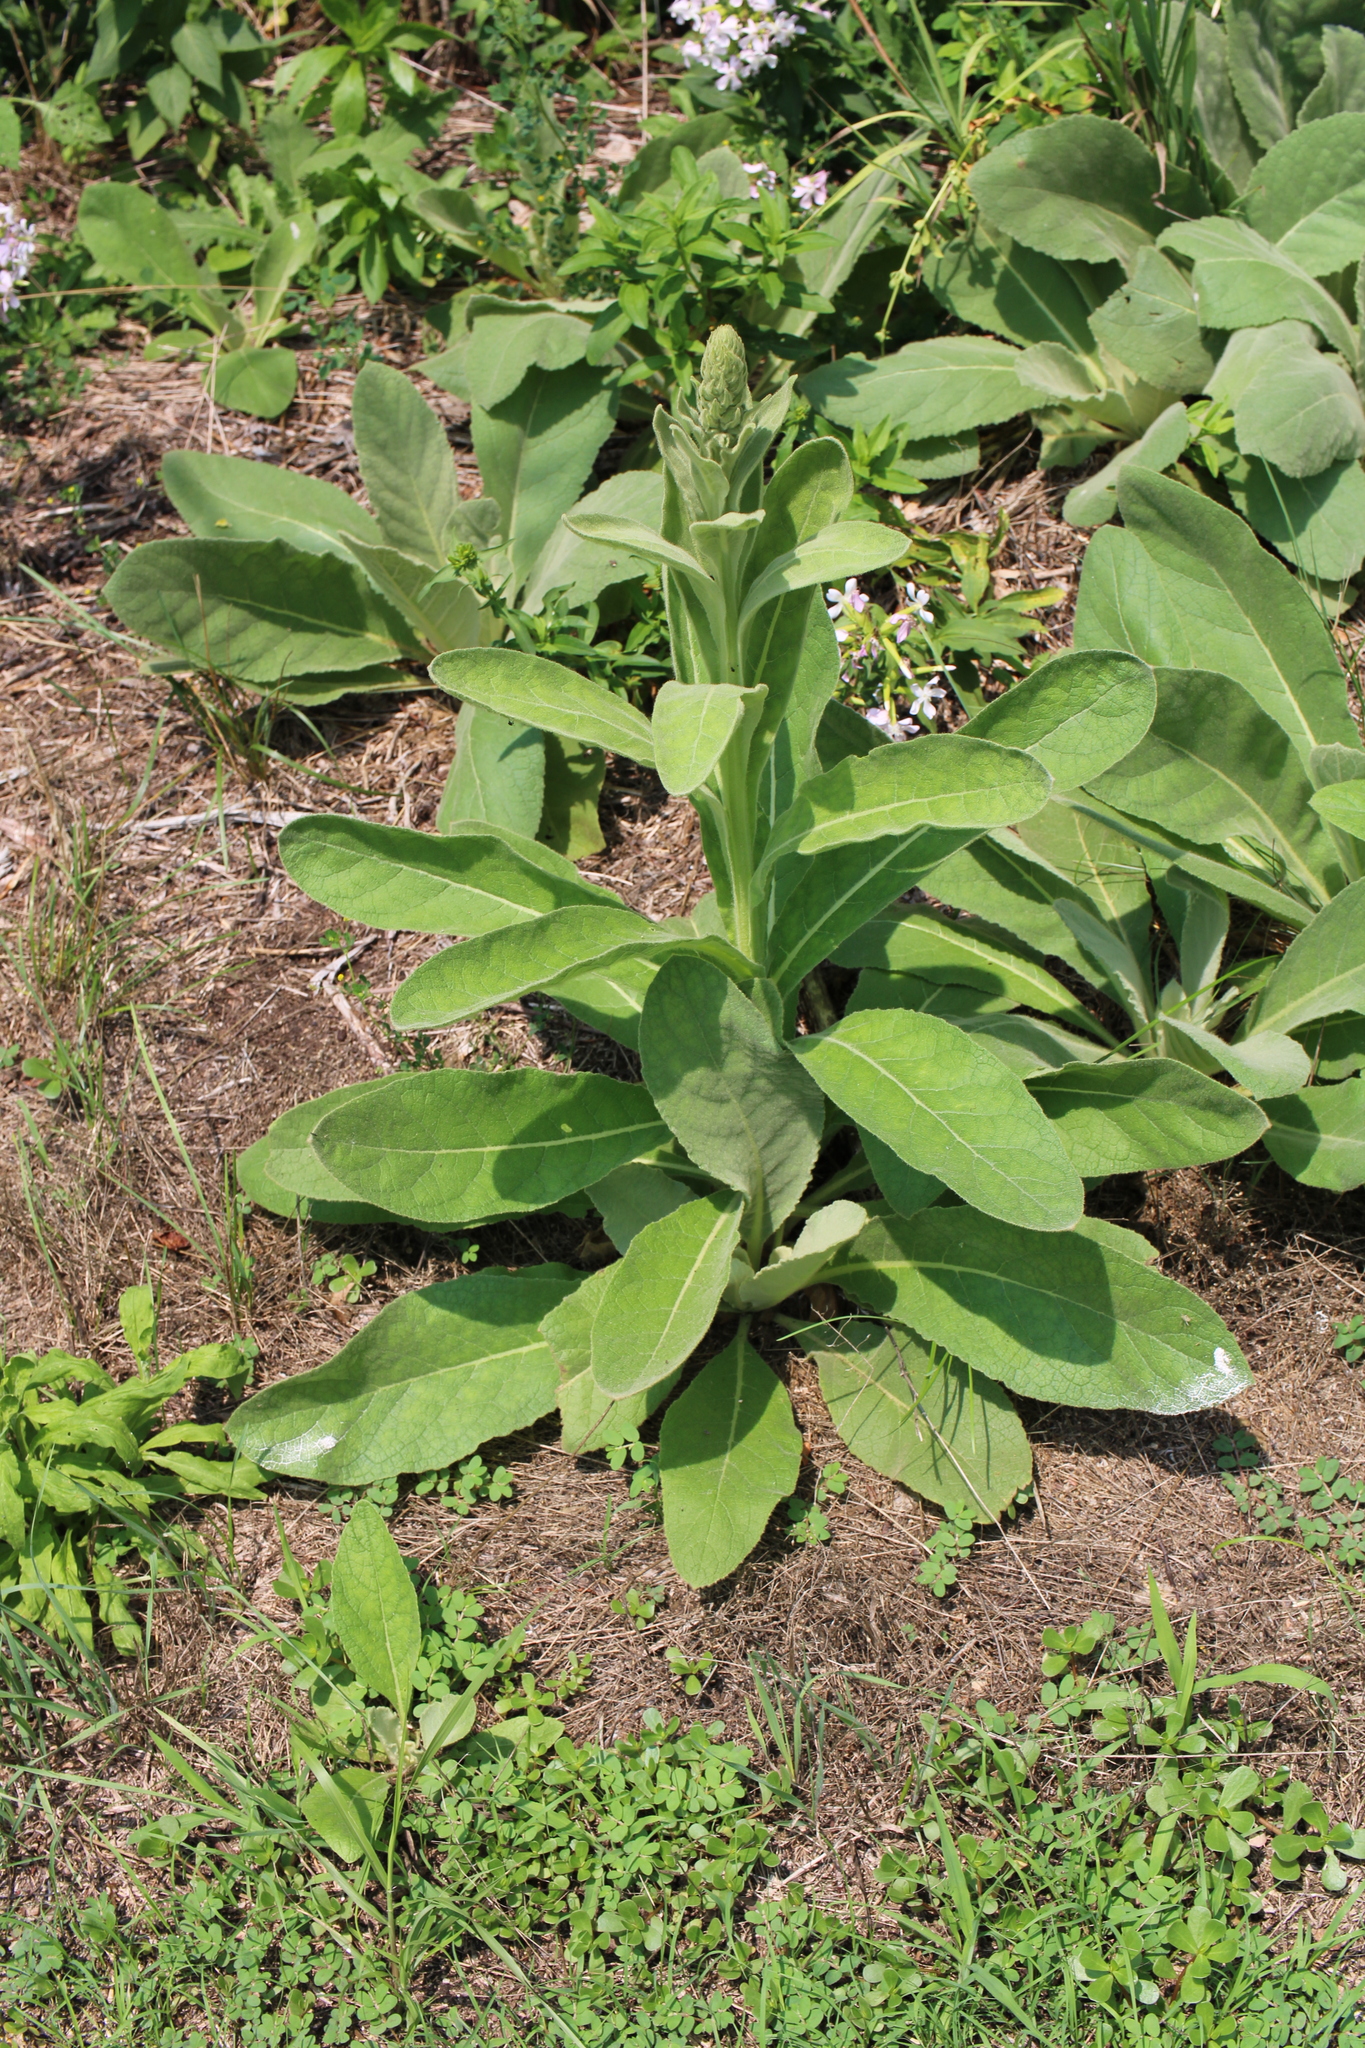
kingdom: Plantae
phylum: Tracheophyta
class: Magnoliopsida
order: Lamiales
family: Scrophulariaceae
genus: Verbascum
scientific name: Verbascum thapsus
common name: Common mullein
